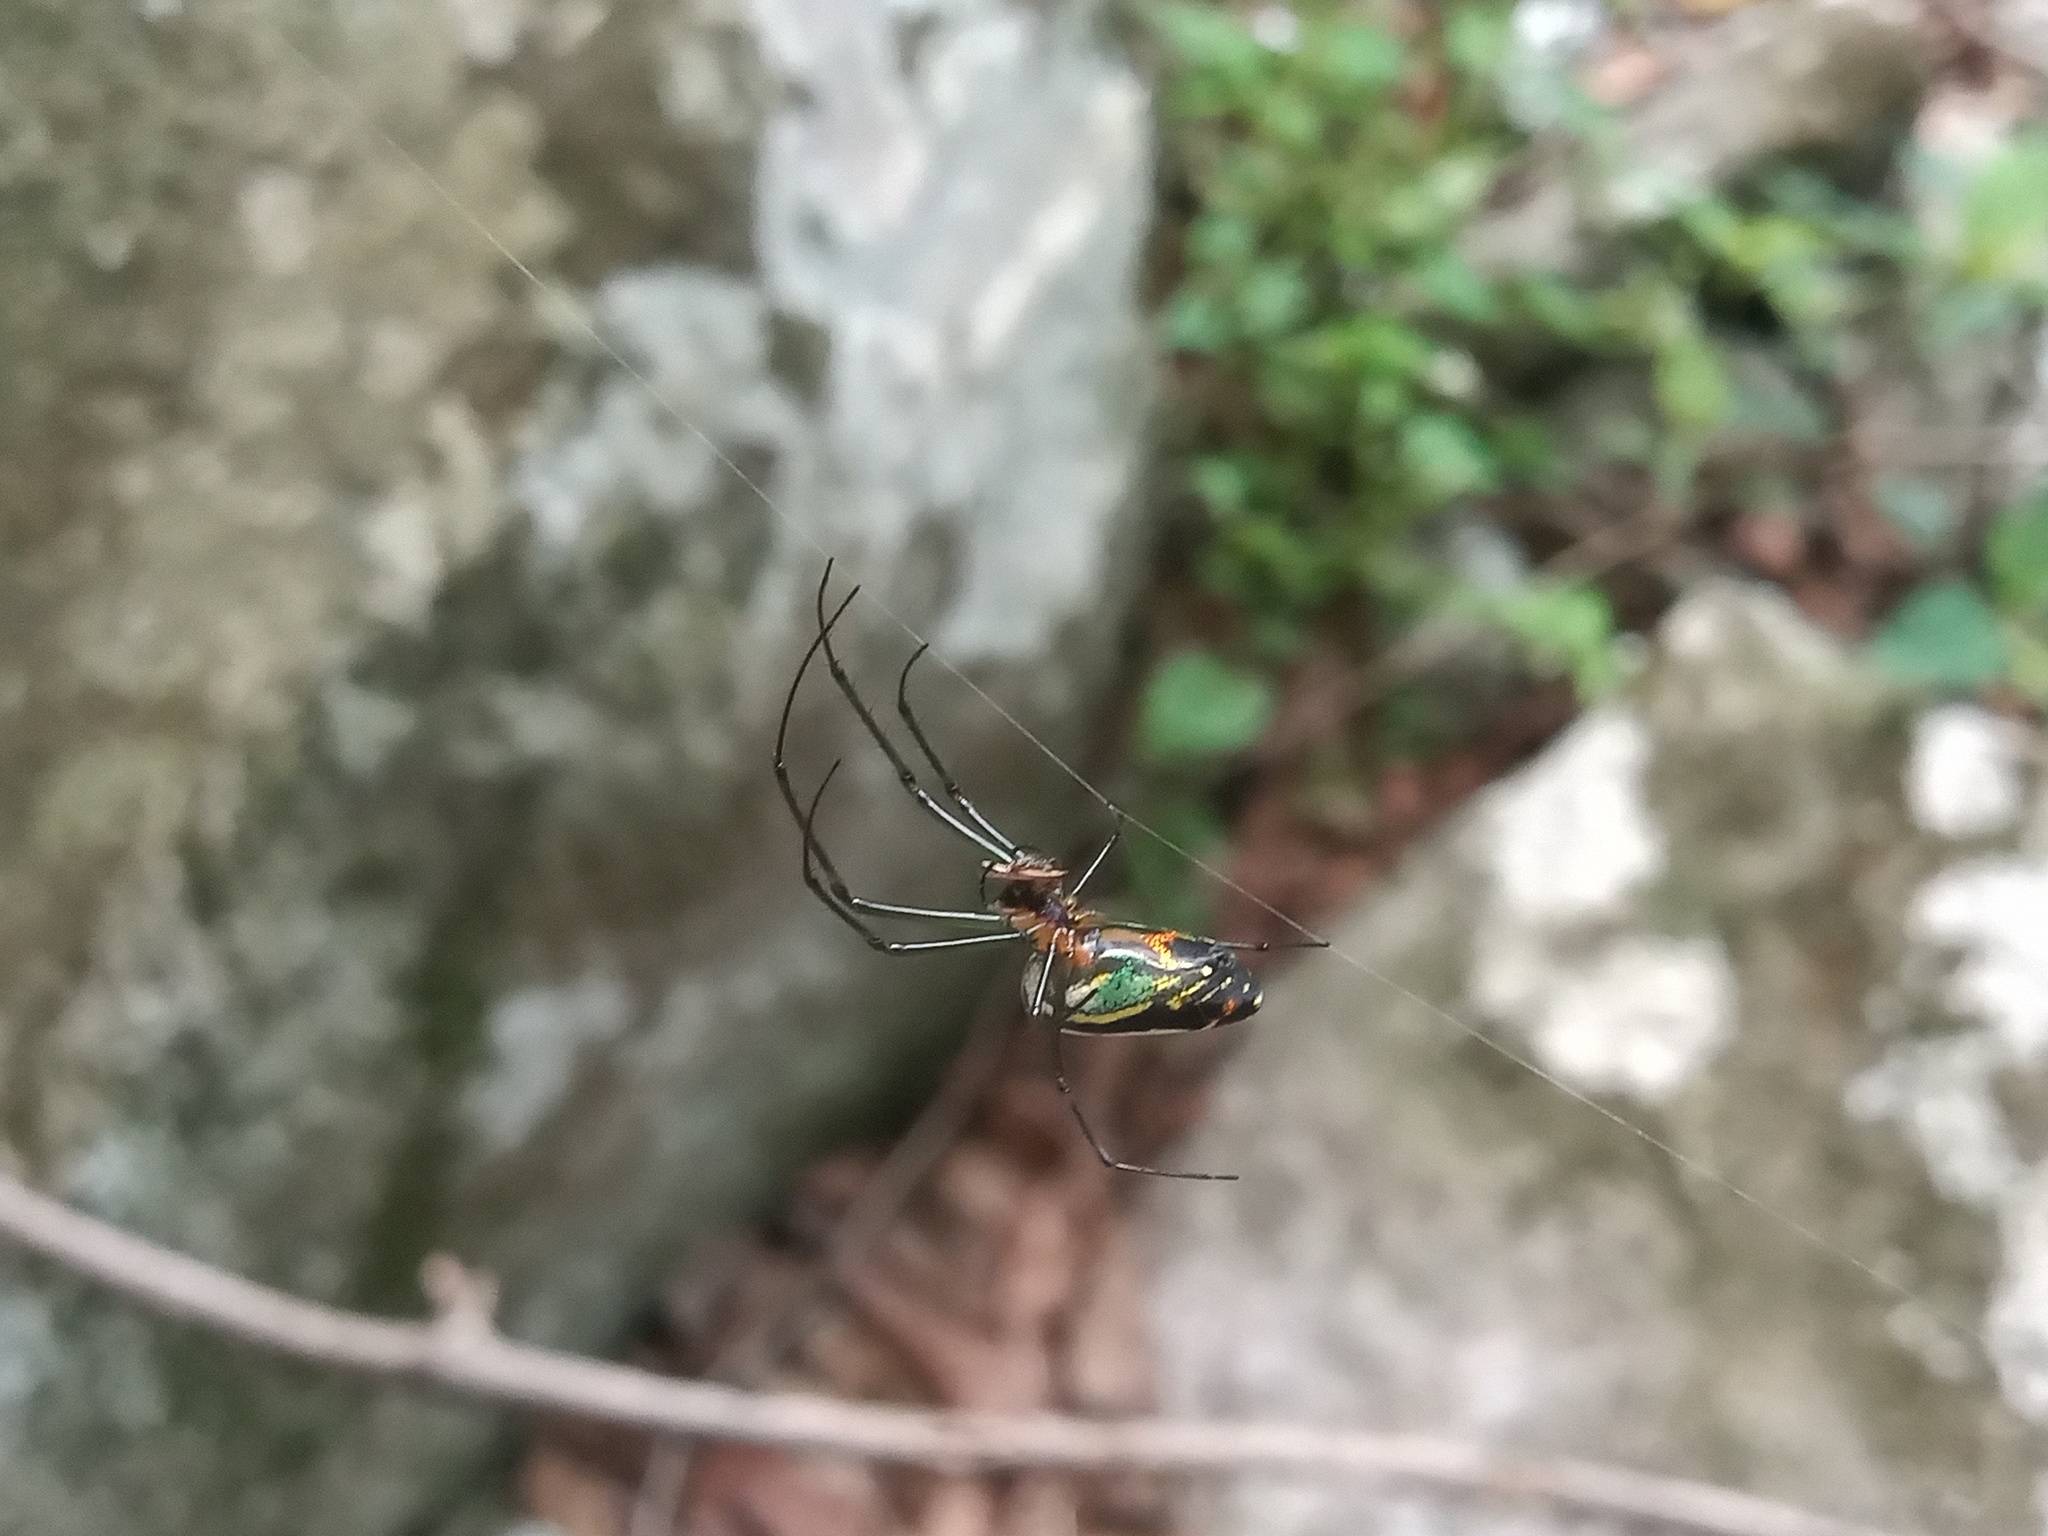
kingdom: Animalia
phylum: Arthropoda
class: Arachnida
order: Araneae
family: Tetragnathidae
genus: Leucauge
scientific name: Leucauge mariana
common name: Longjawed orb weavers
